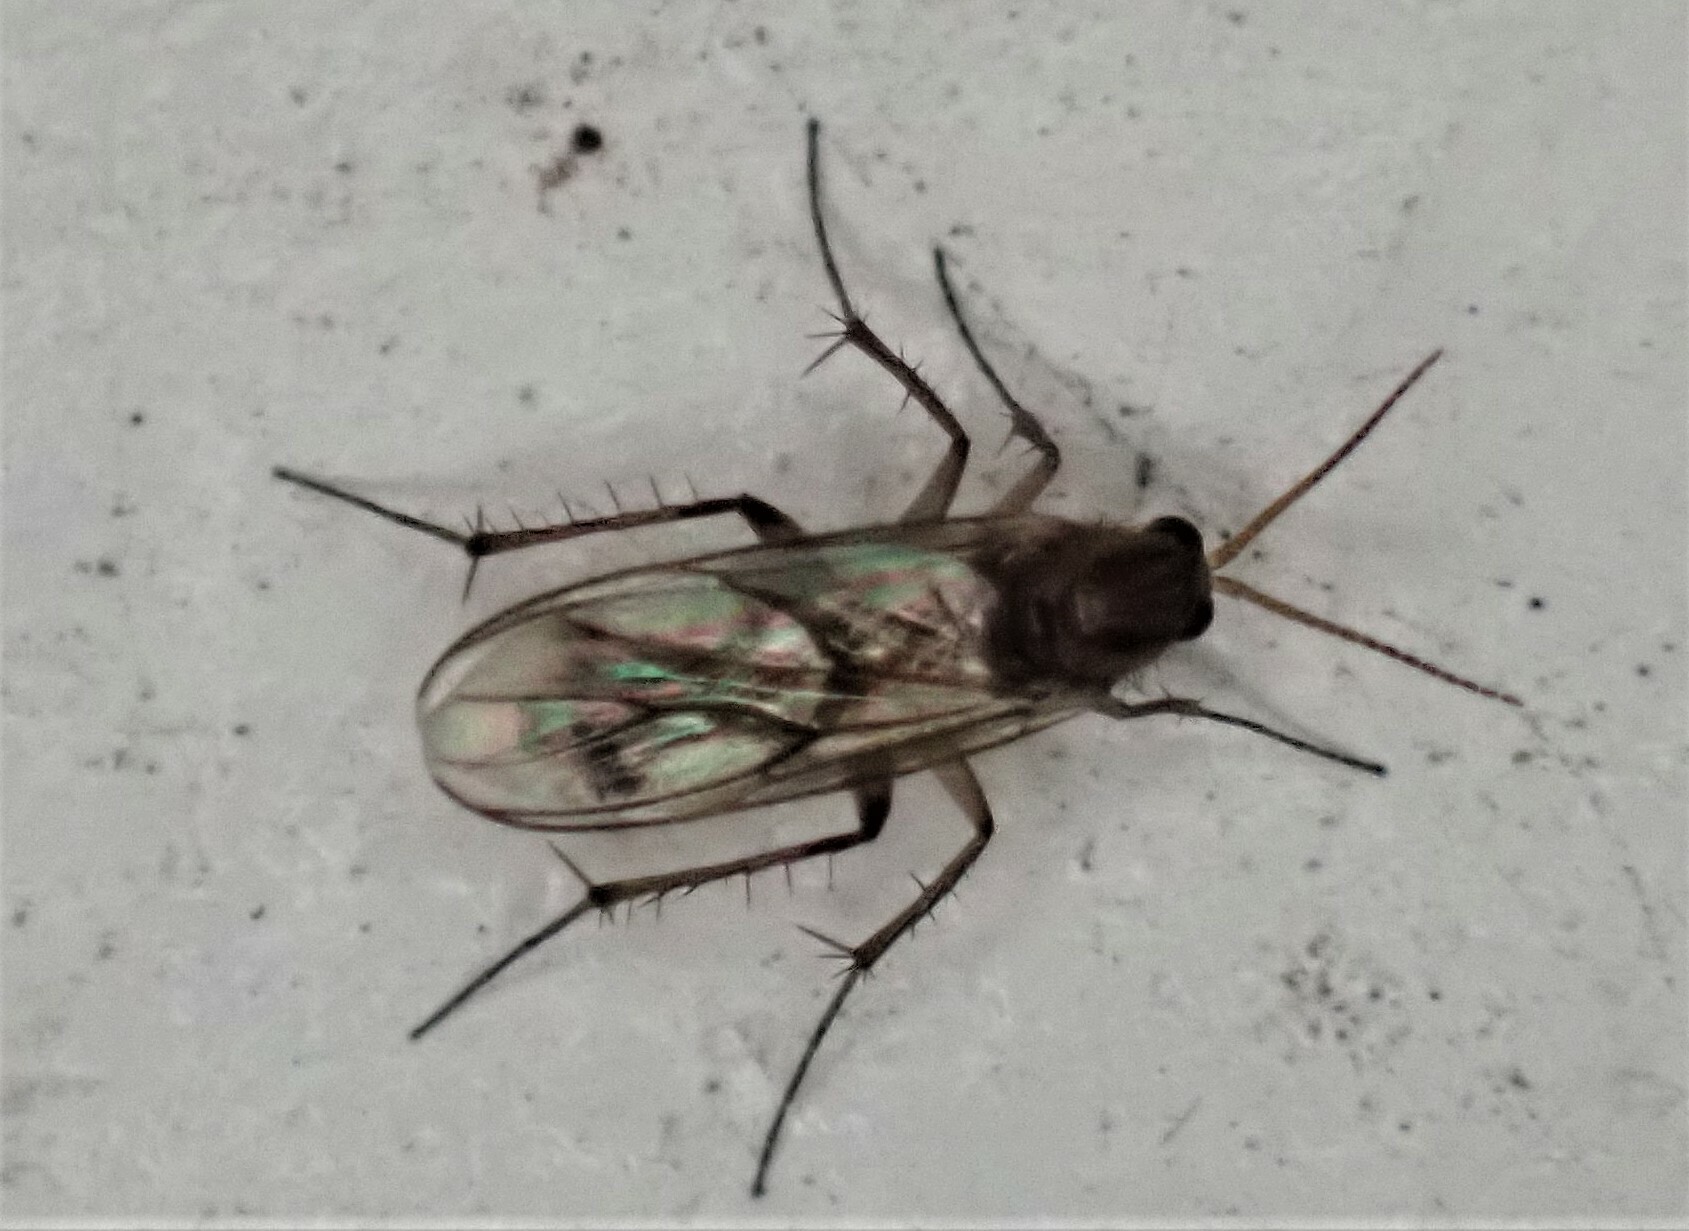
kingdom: Animalia
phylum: Arthropoda
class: Insecta
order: Diptera
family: Mycetophilidae
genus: Anomalomyia
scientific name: Anomalomyia guttata
